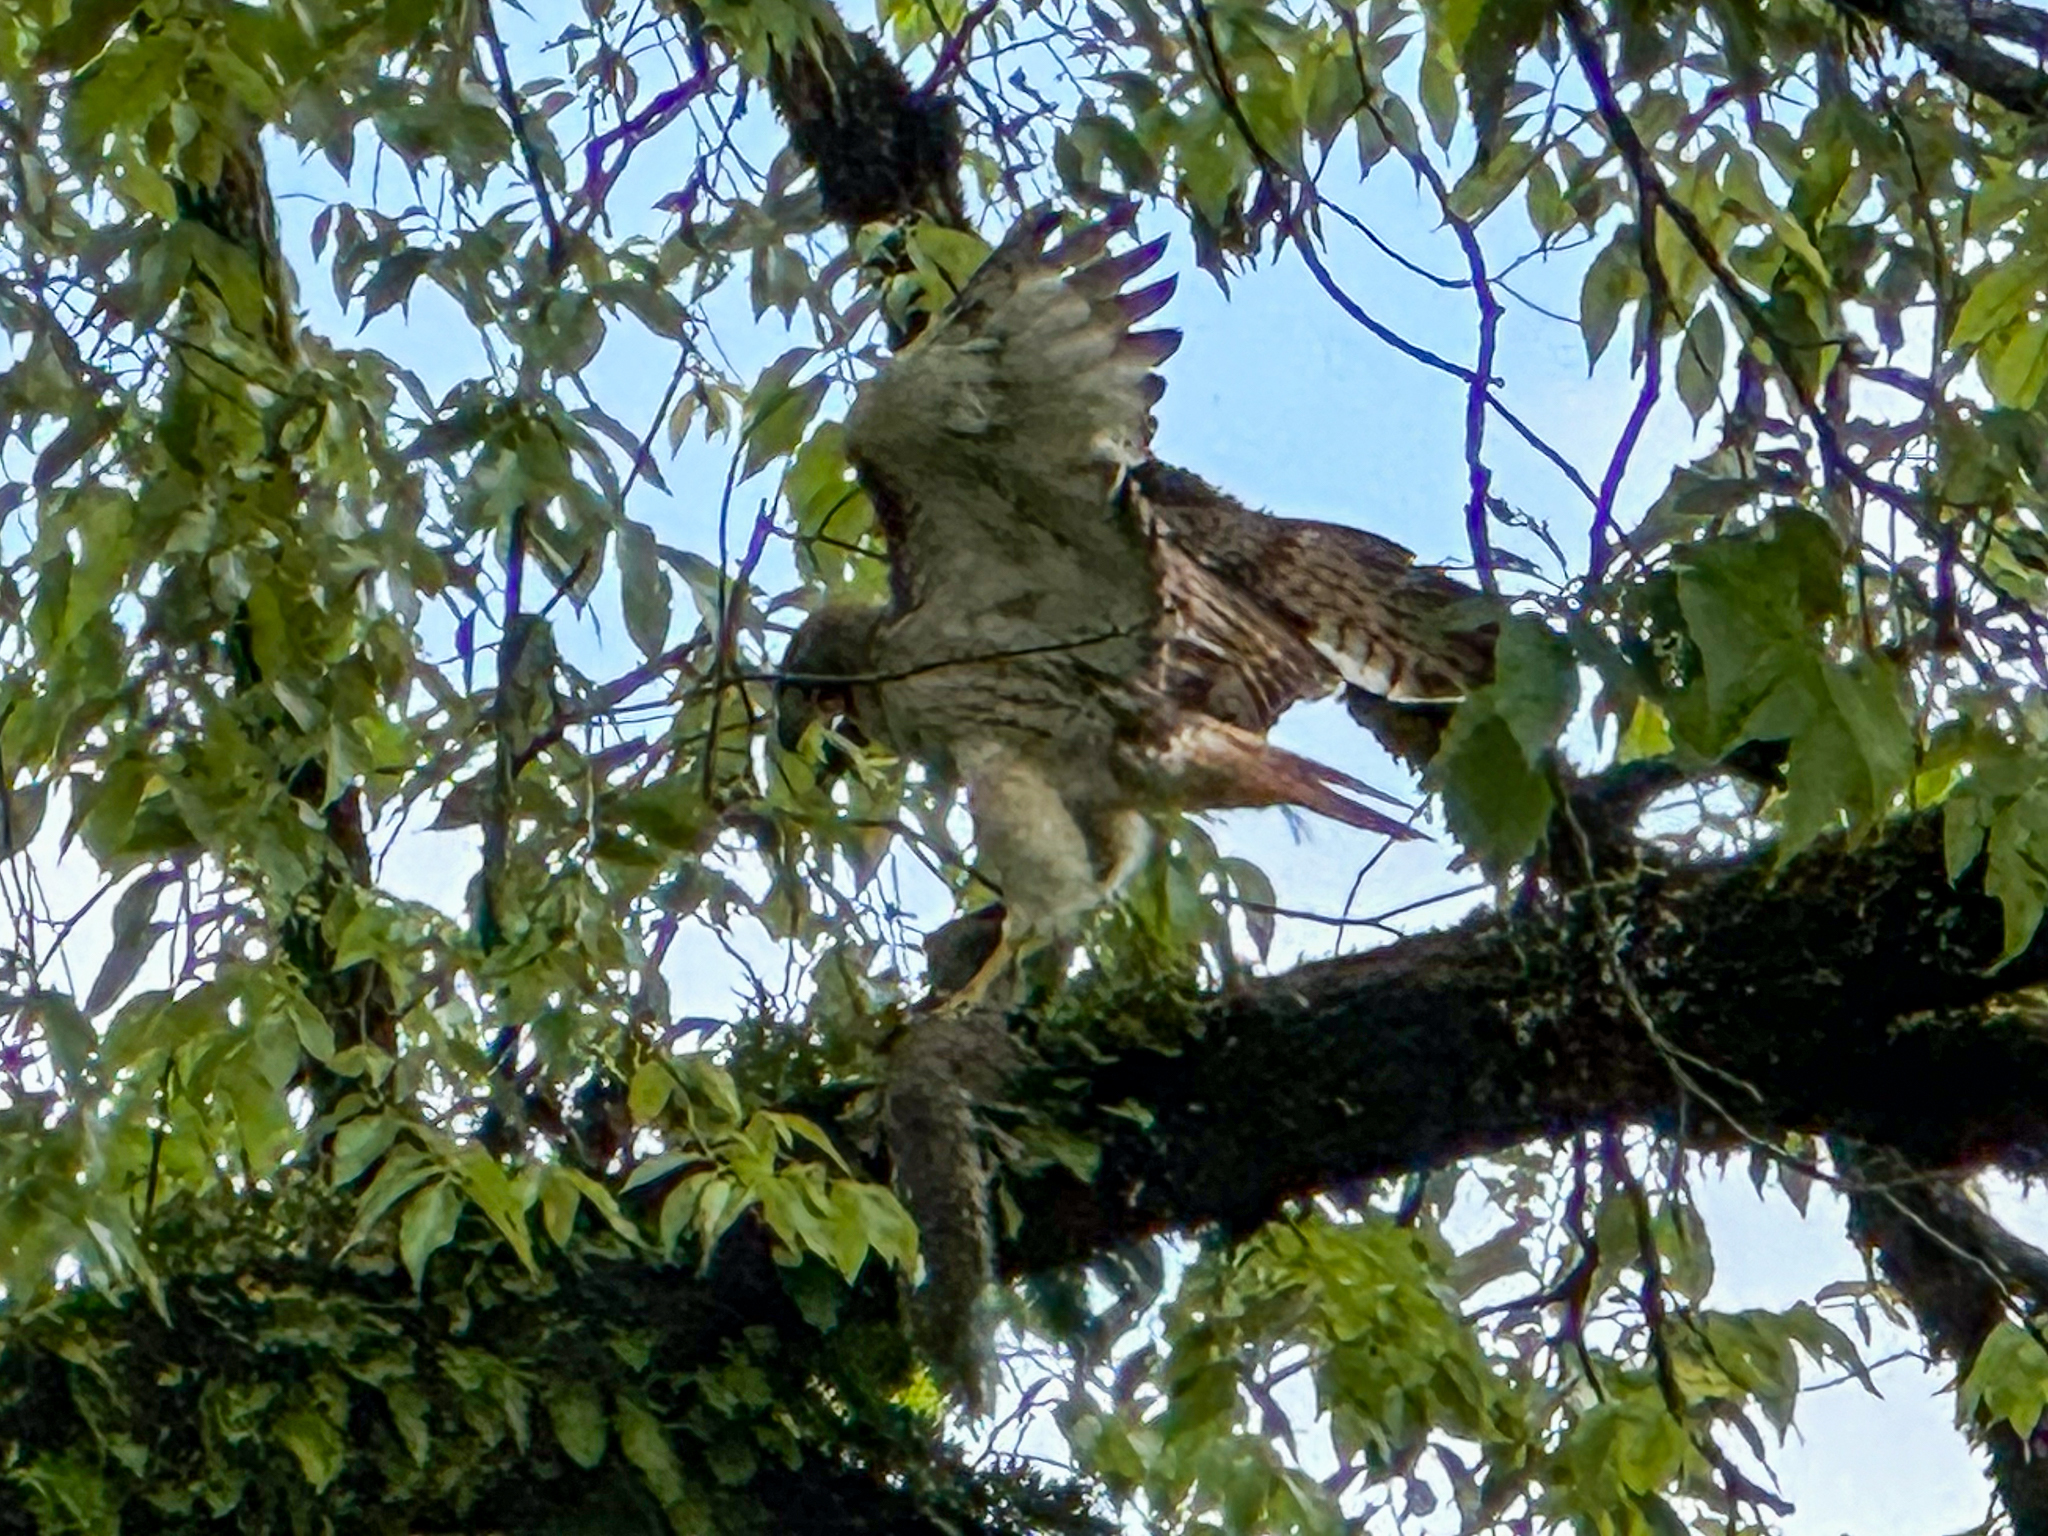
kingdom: Animalia
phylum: Chordata
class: Aves
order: Accipitriformes
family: Accipitridae
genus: Buteo
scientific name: Buteo jamaicensis
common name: Red-tailed hawk
